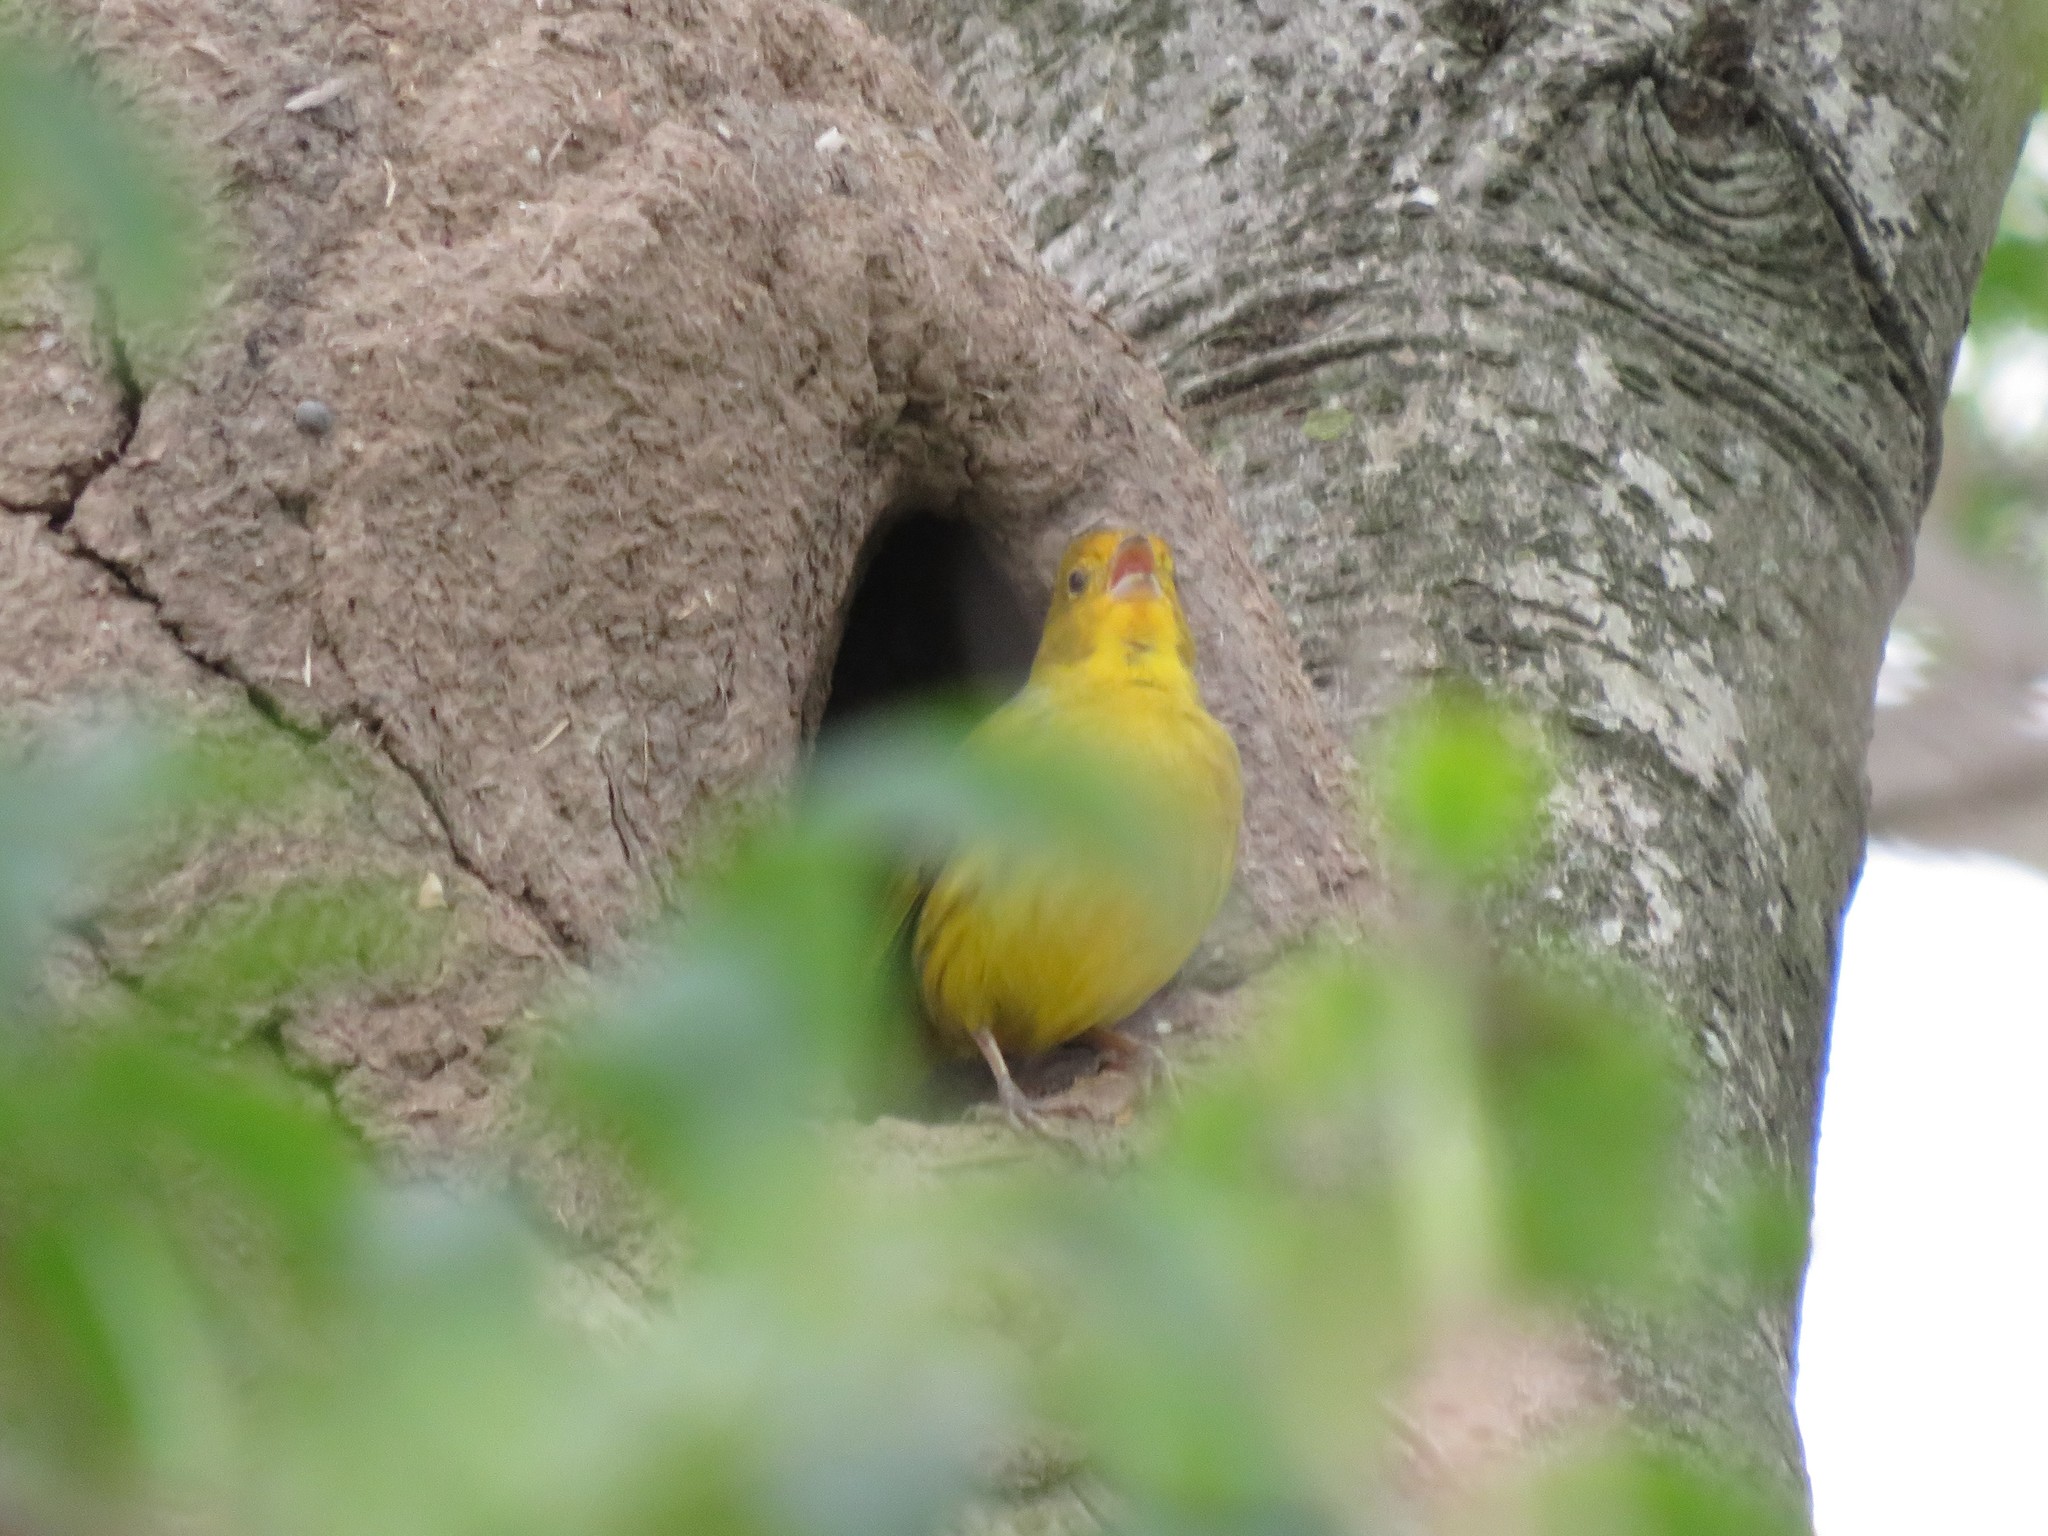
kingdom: Animalia
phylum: Chordata
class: Aves
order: Passeriformes
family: Thraupidae
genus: Sicalis
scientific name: Sicalis flaveola
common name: Saffron finch
